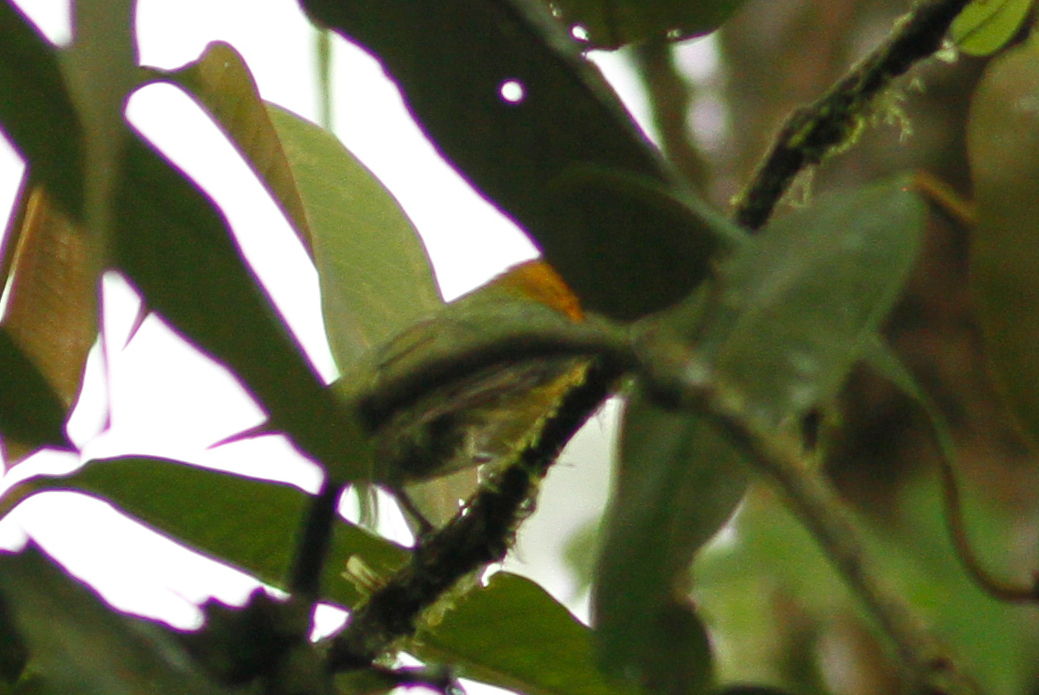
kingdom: Animalia
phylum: Chordata
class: Aves
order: Piciformes
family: Capitonidae
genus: Eubucco
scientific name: Eubucco bourcierii
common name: Red-headed barbet
